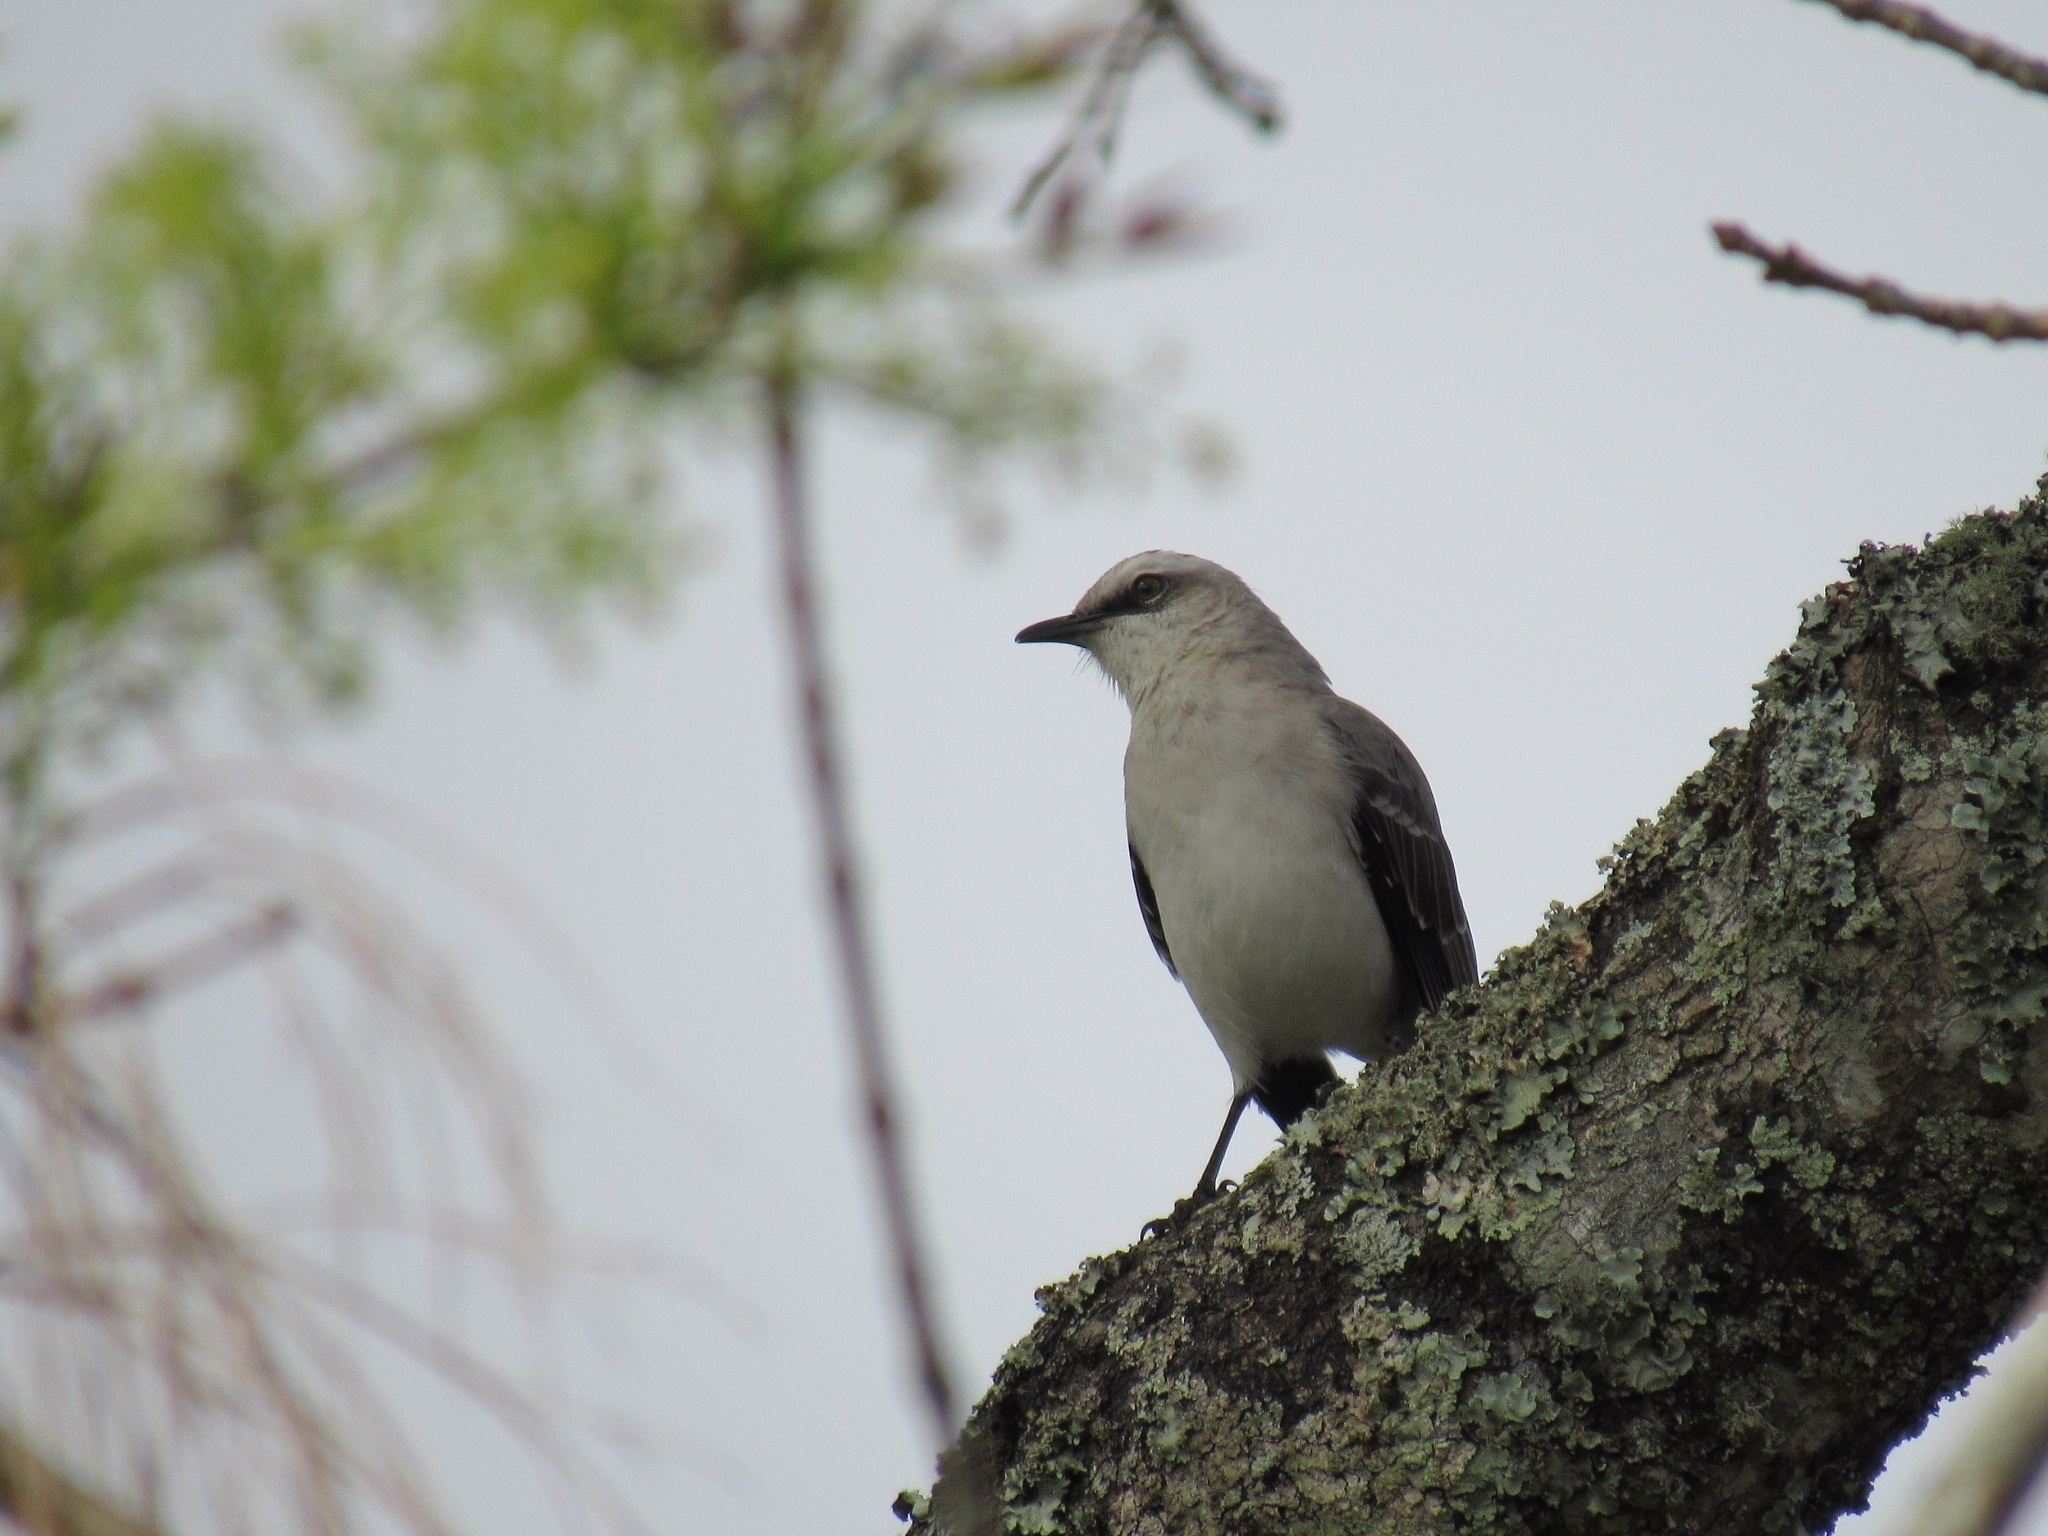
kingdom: Animalia
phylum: Chordata
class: Aves
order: Passeriformes
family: Mimidae
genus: Mimus
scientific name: Mimus gilvus
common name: Tropical mockingbird
